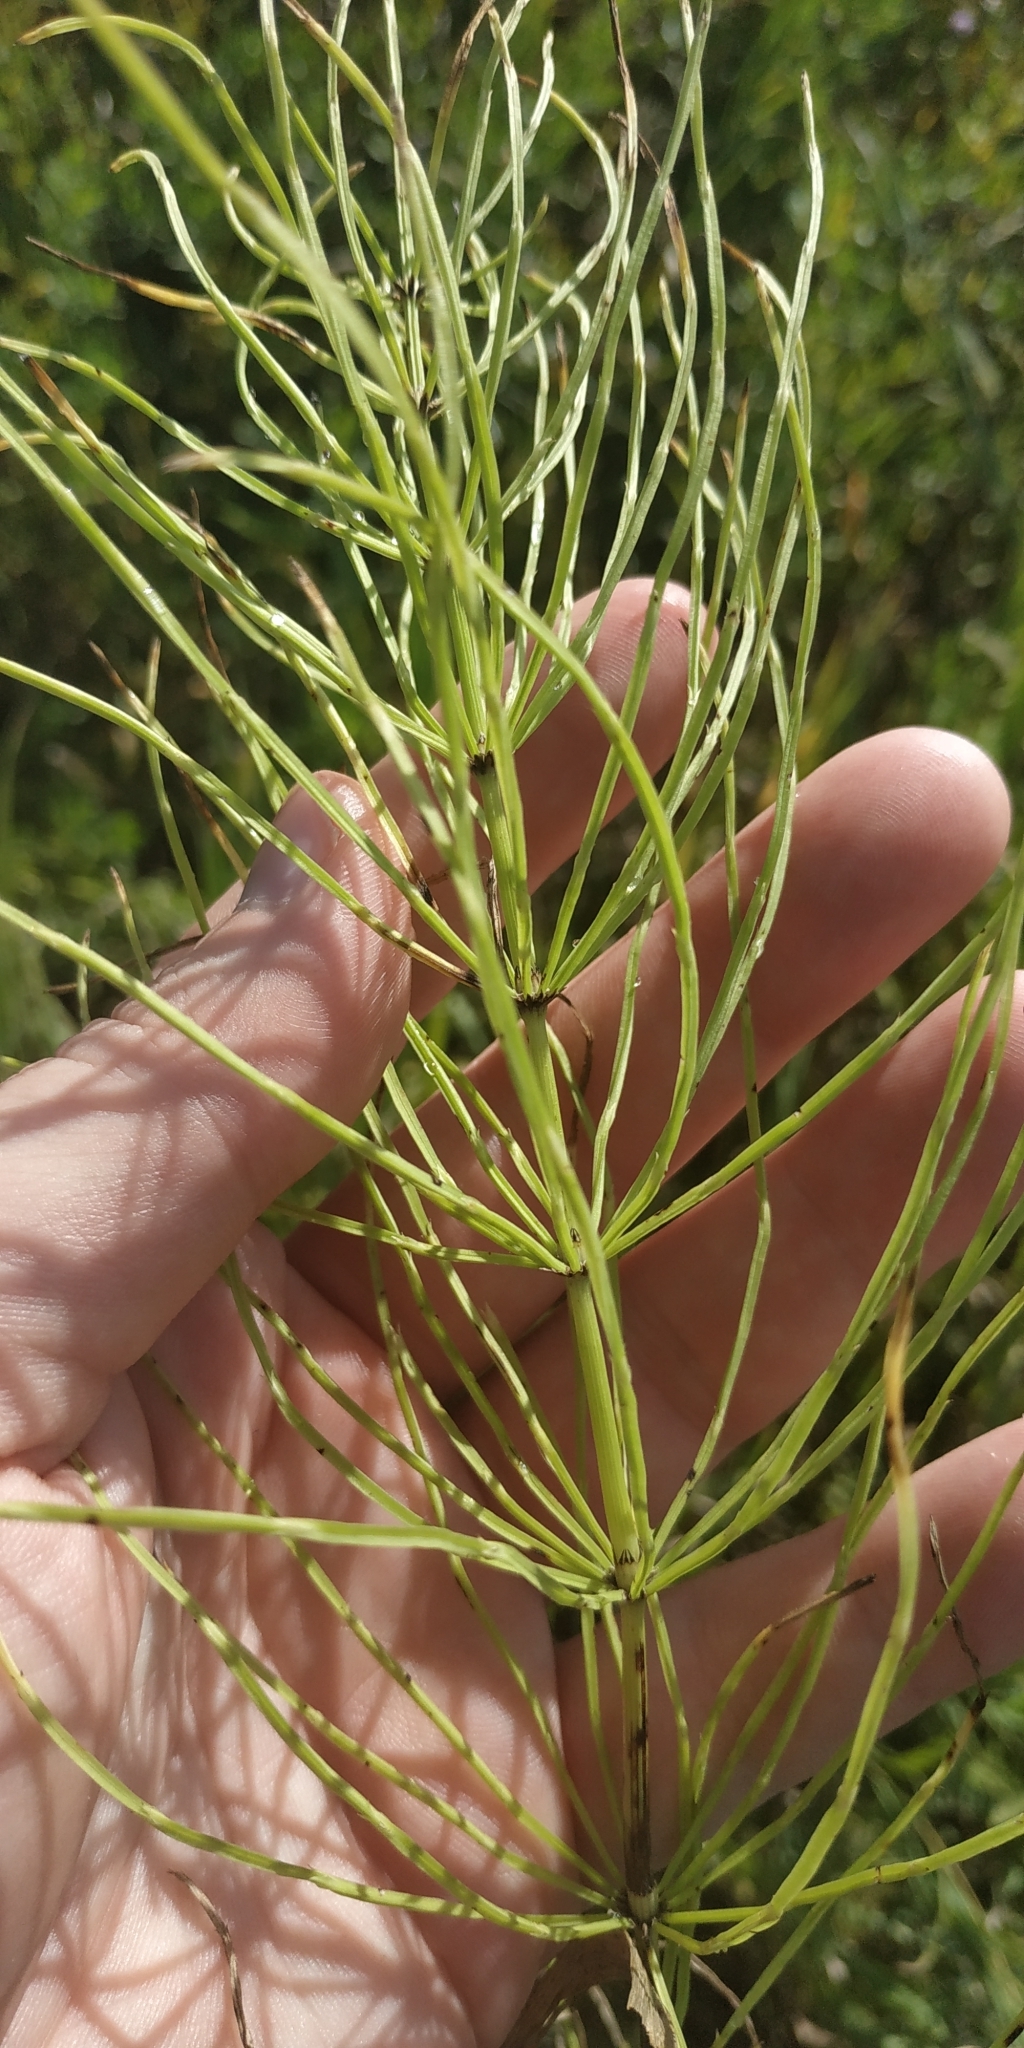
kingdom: Plantae
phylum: Tracheophyta
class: Polypodiopsida
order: Equisetales
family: Equisetaceae
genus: Equisetum
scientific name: Equisetum arvense
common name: Field horsetail
